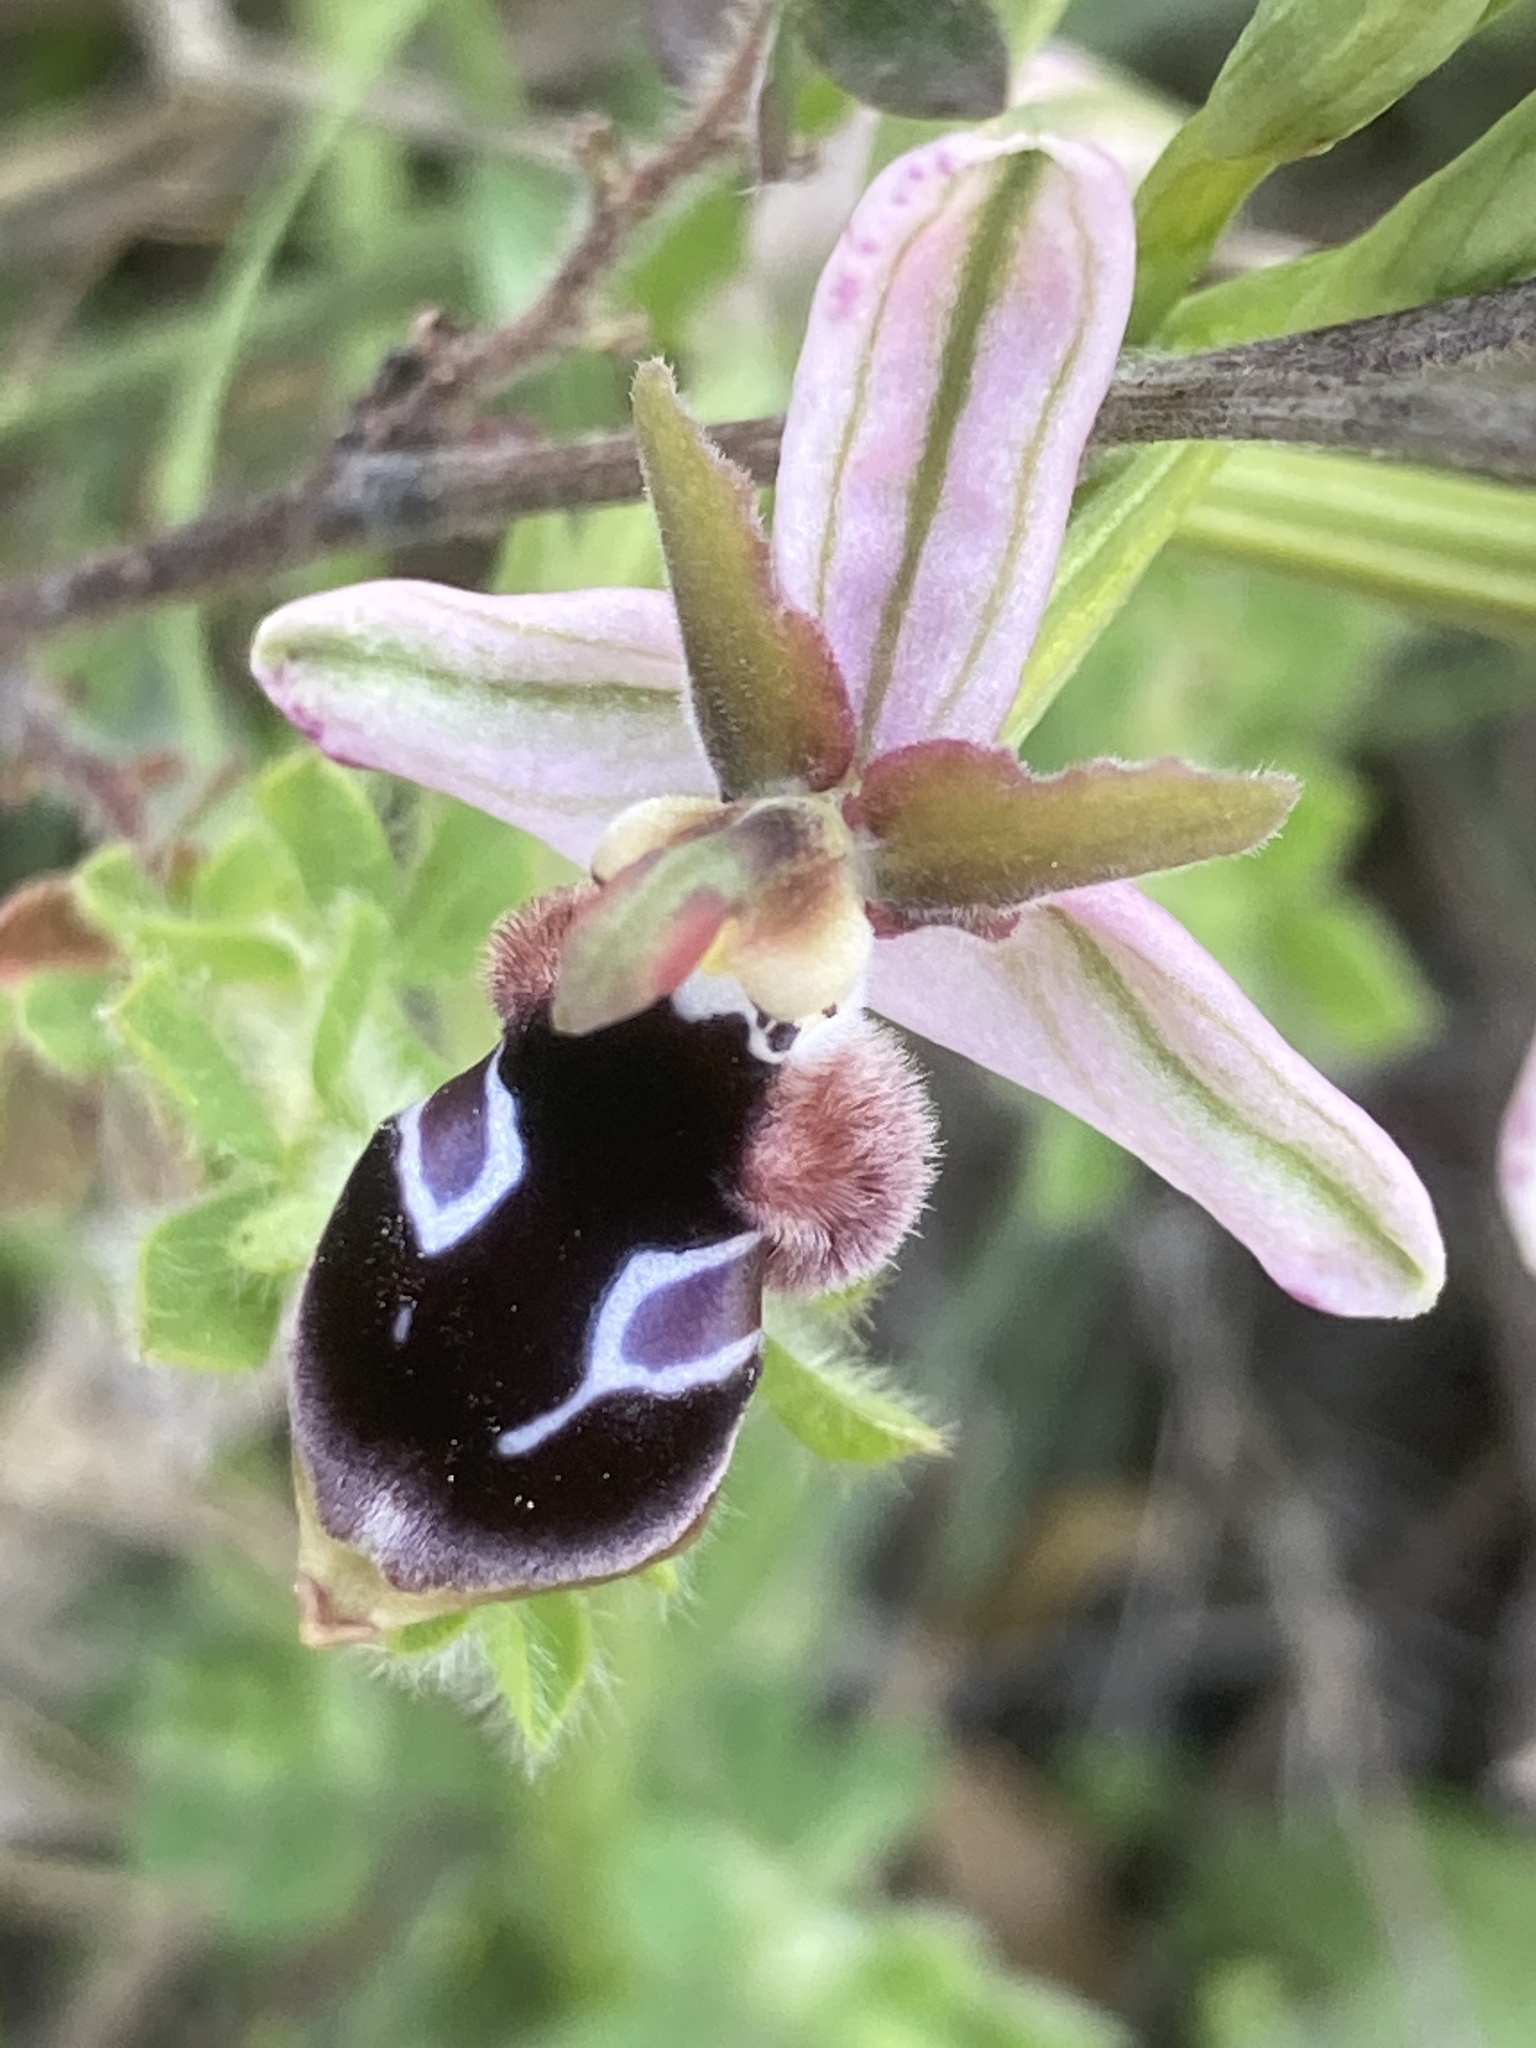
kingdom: Plantae
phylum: Tracheophyta
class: Liliopsida
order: Asparagales
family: Orchidaceae
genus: Ophrys
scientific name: Ophrys reinholdii
